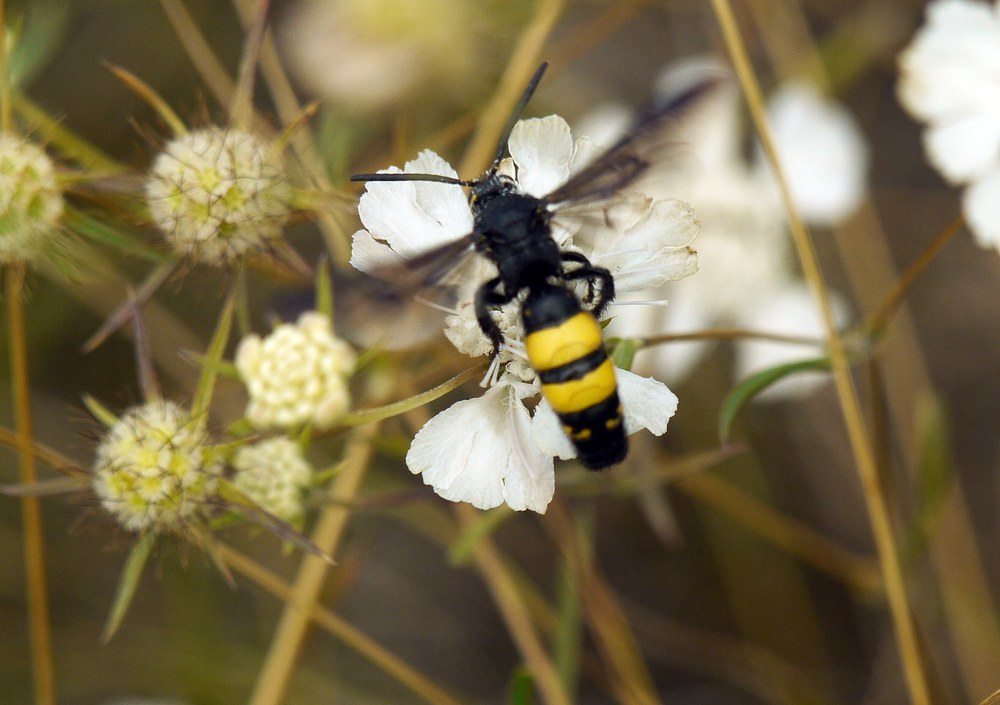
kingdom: Animalia
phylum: Arthropoda
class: Insecta
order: Hymenoptera
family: Vespidae
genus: Vespa
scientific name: Vespa galbula
